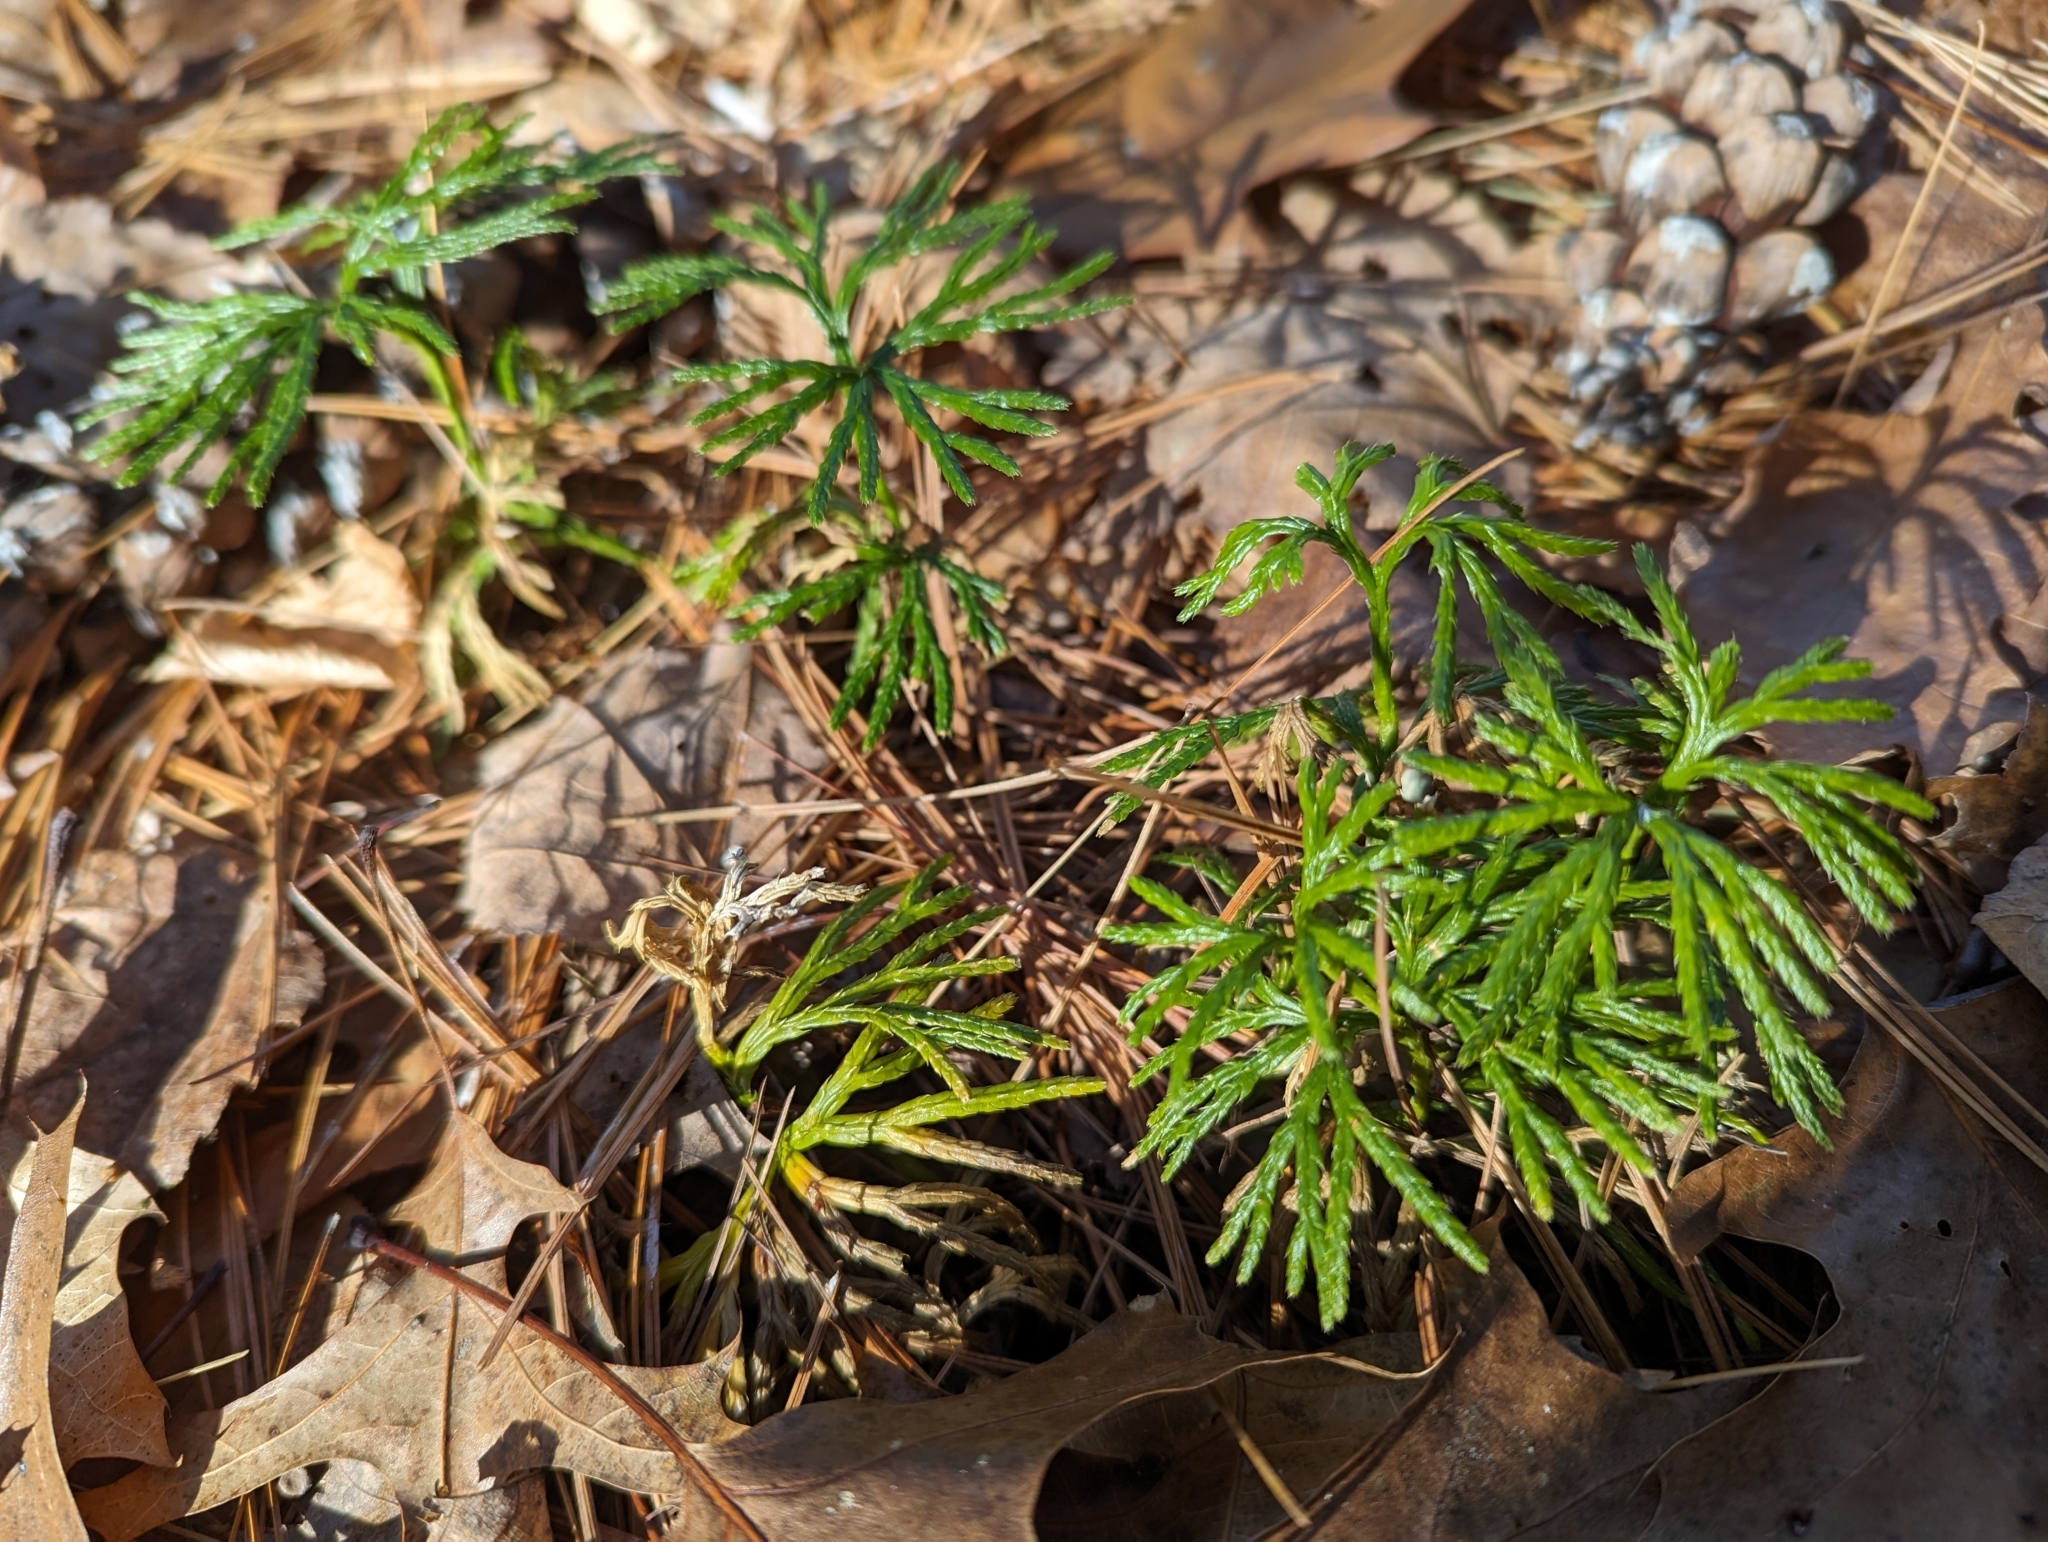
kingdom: Plantae
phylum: Tracheophyta
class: Lycopodiopsida
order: Lycopodiales
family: Lycopodiaceae
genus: Diphasiastrum
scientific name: Diphasiastrum digitatum
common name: Southern running-pine
